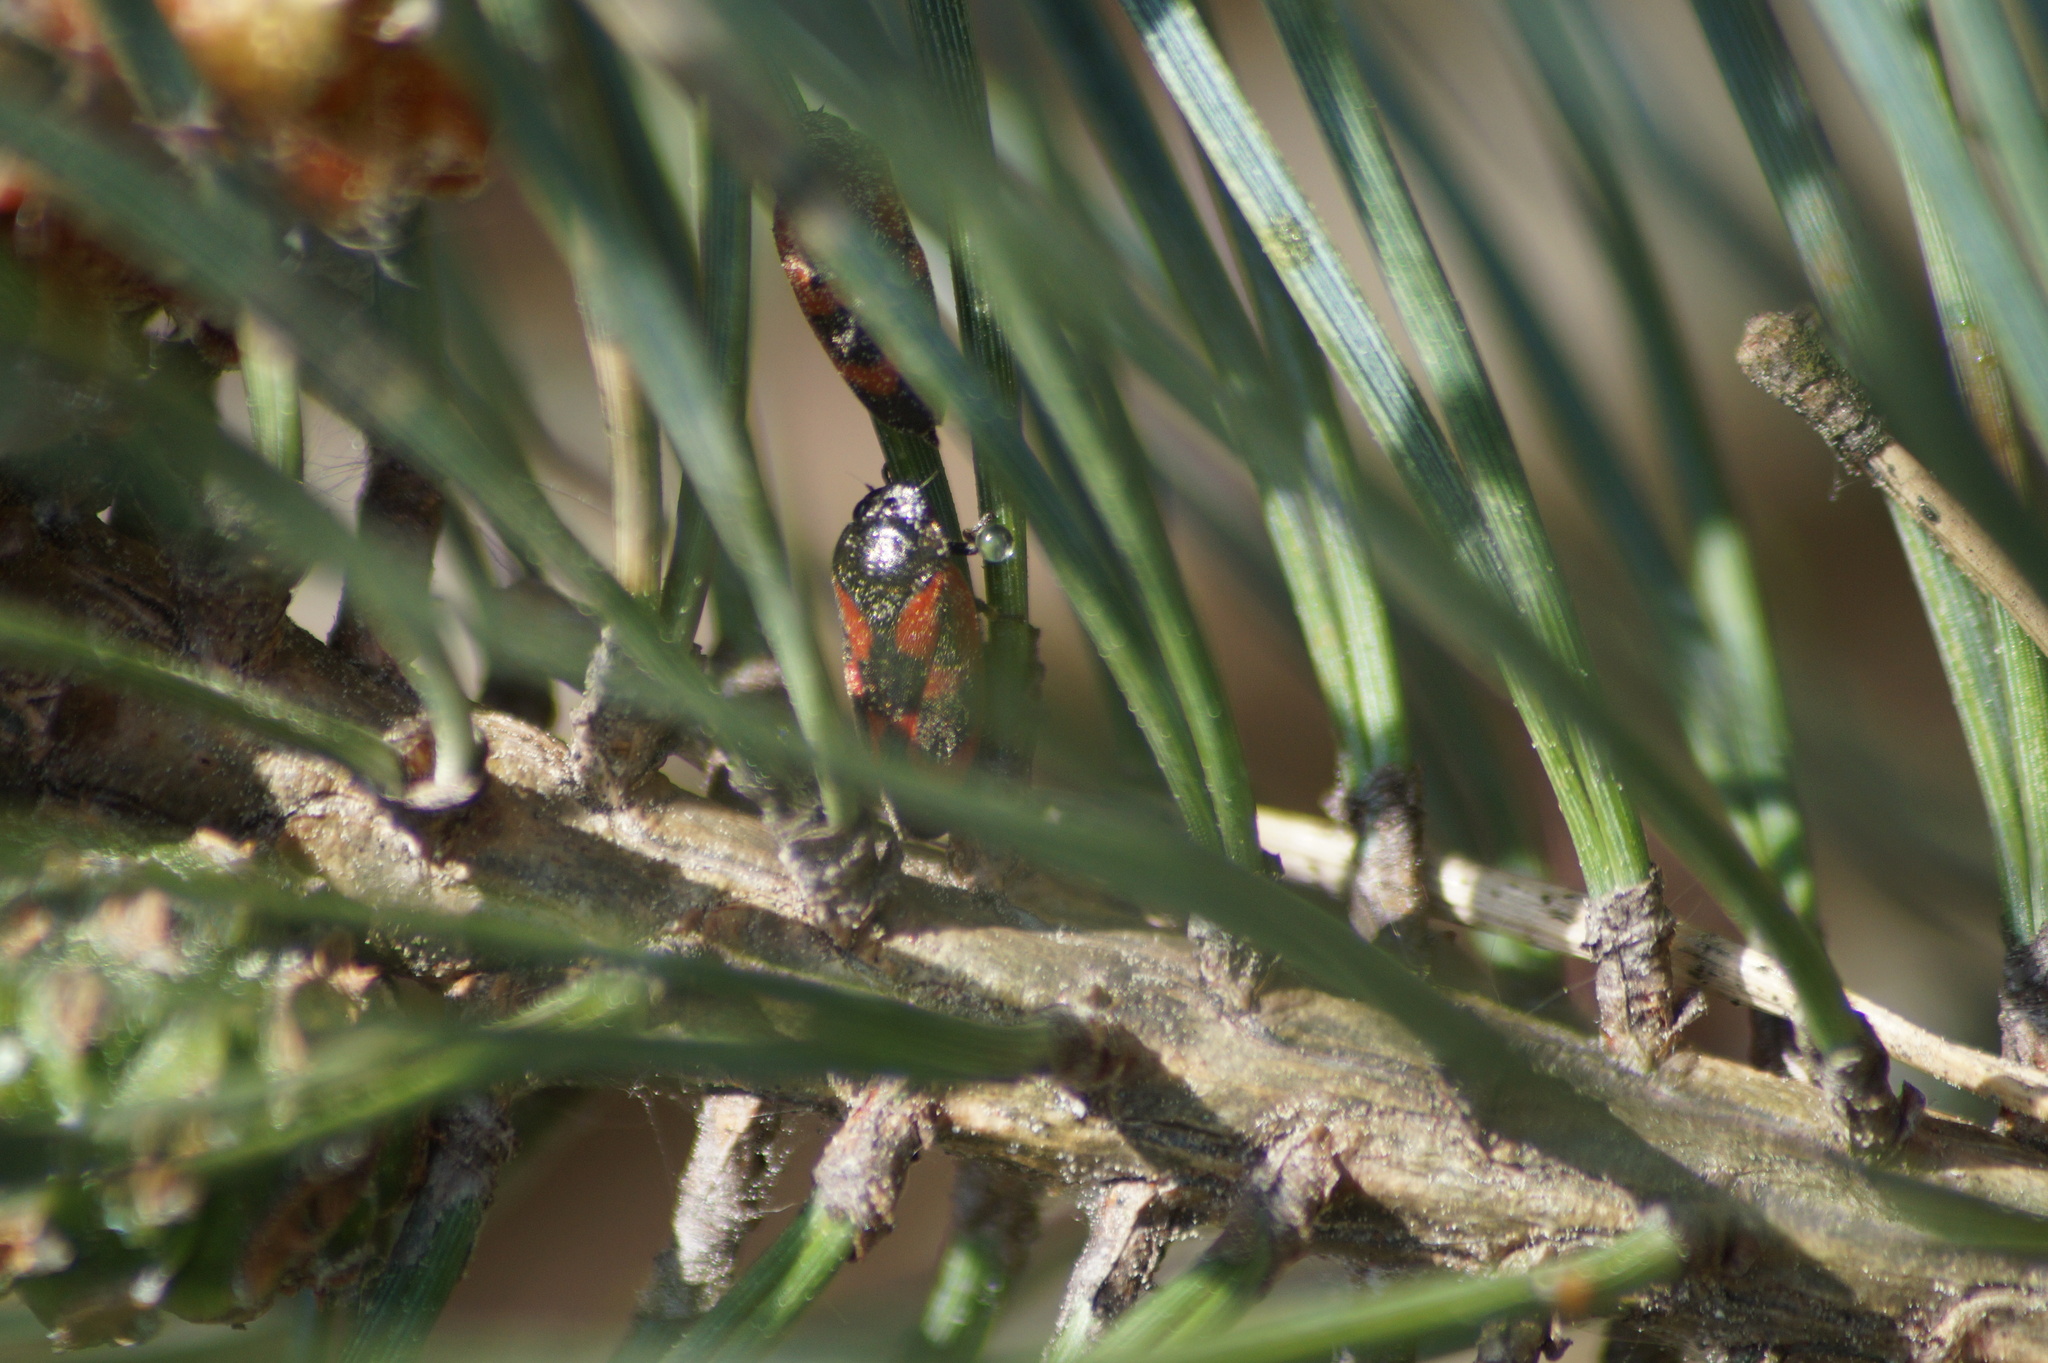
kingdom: Animalia
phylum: Arthropoda
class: Insecta
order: Hemiptera
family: Cercopidae
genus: Haematoloma
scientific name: Haematoloma dorsata
